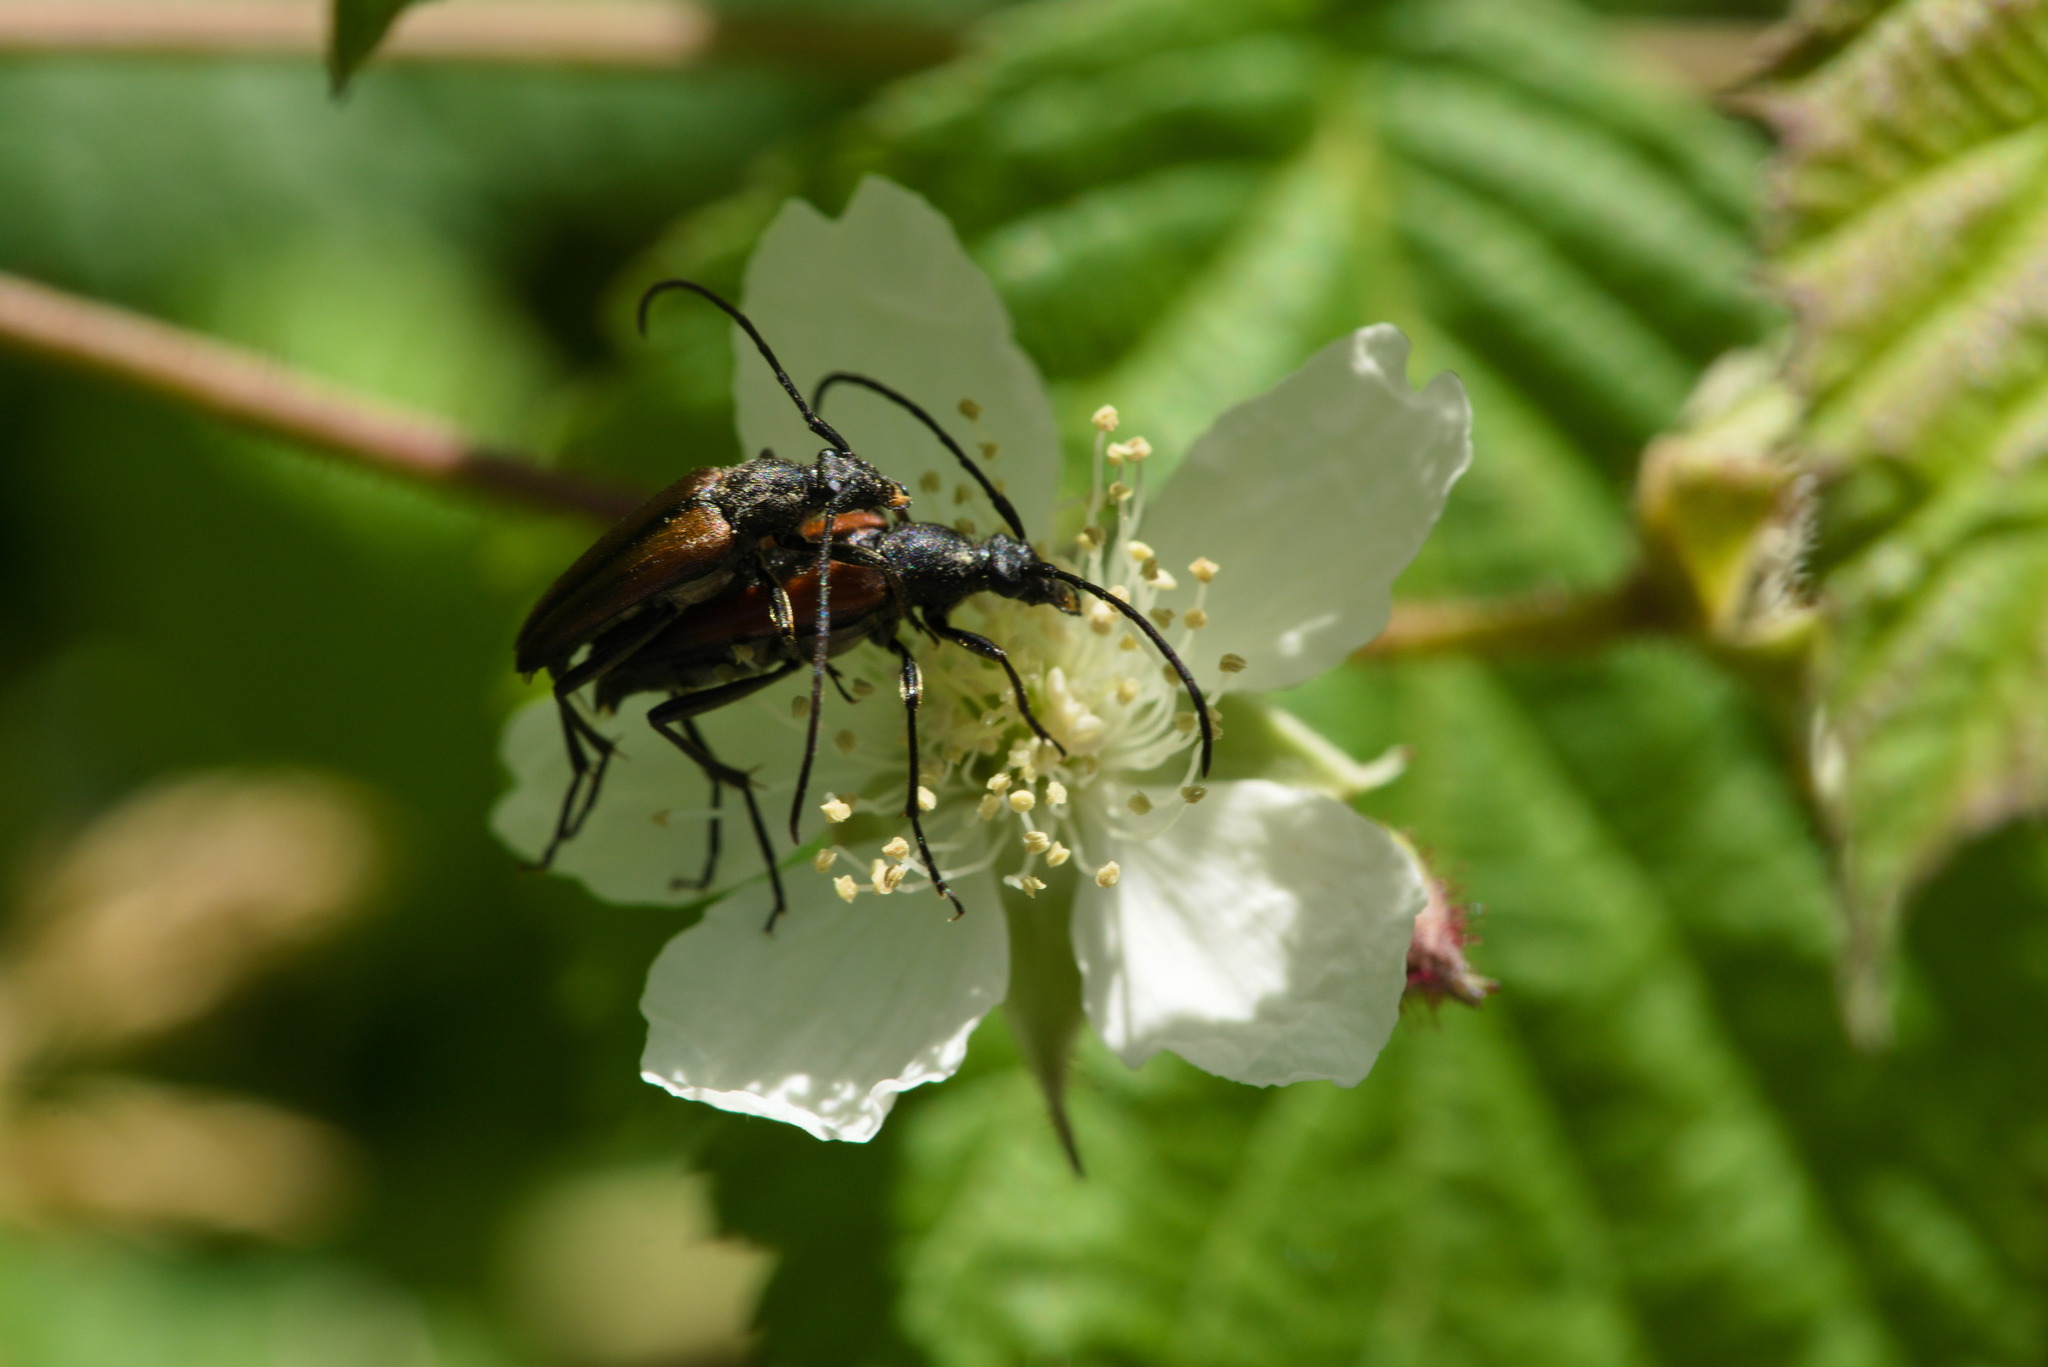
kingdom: Animalia
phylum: Arthropoda
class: Insecta
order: Coleoptera
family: Cerambycidae
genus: Stenurella
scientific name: Stenurella melanura
